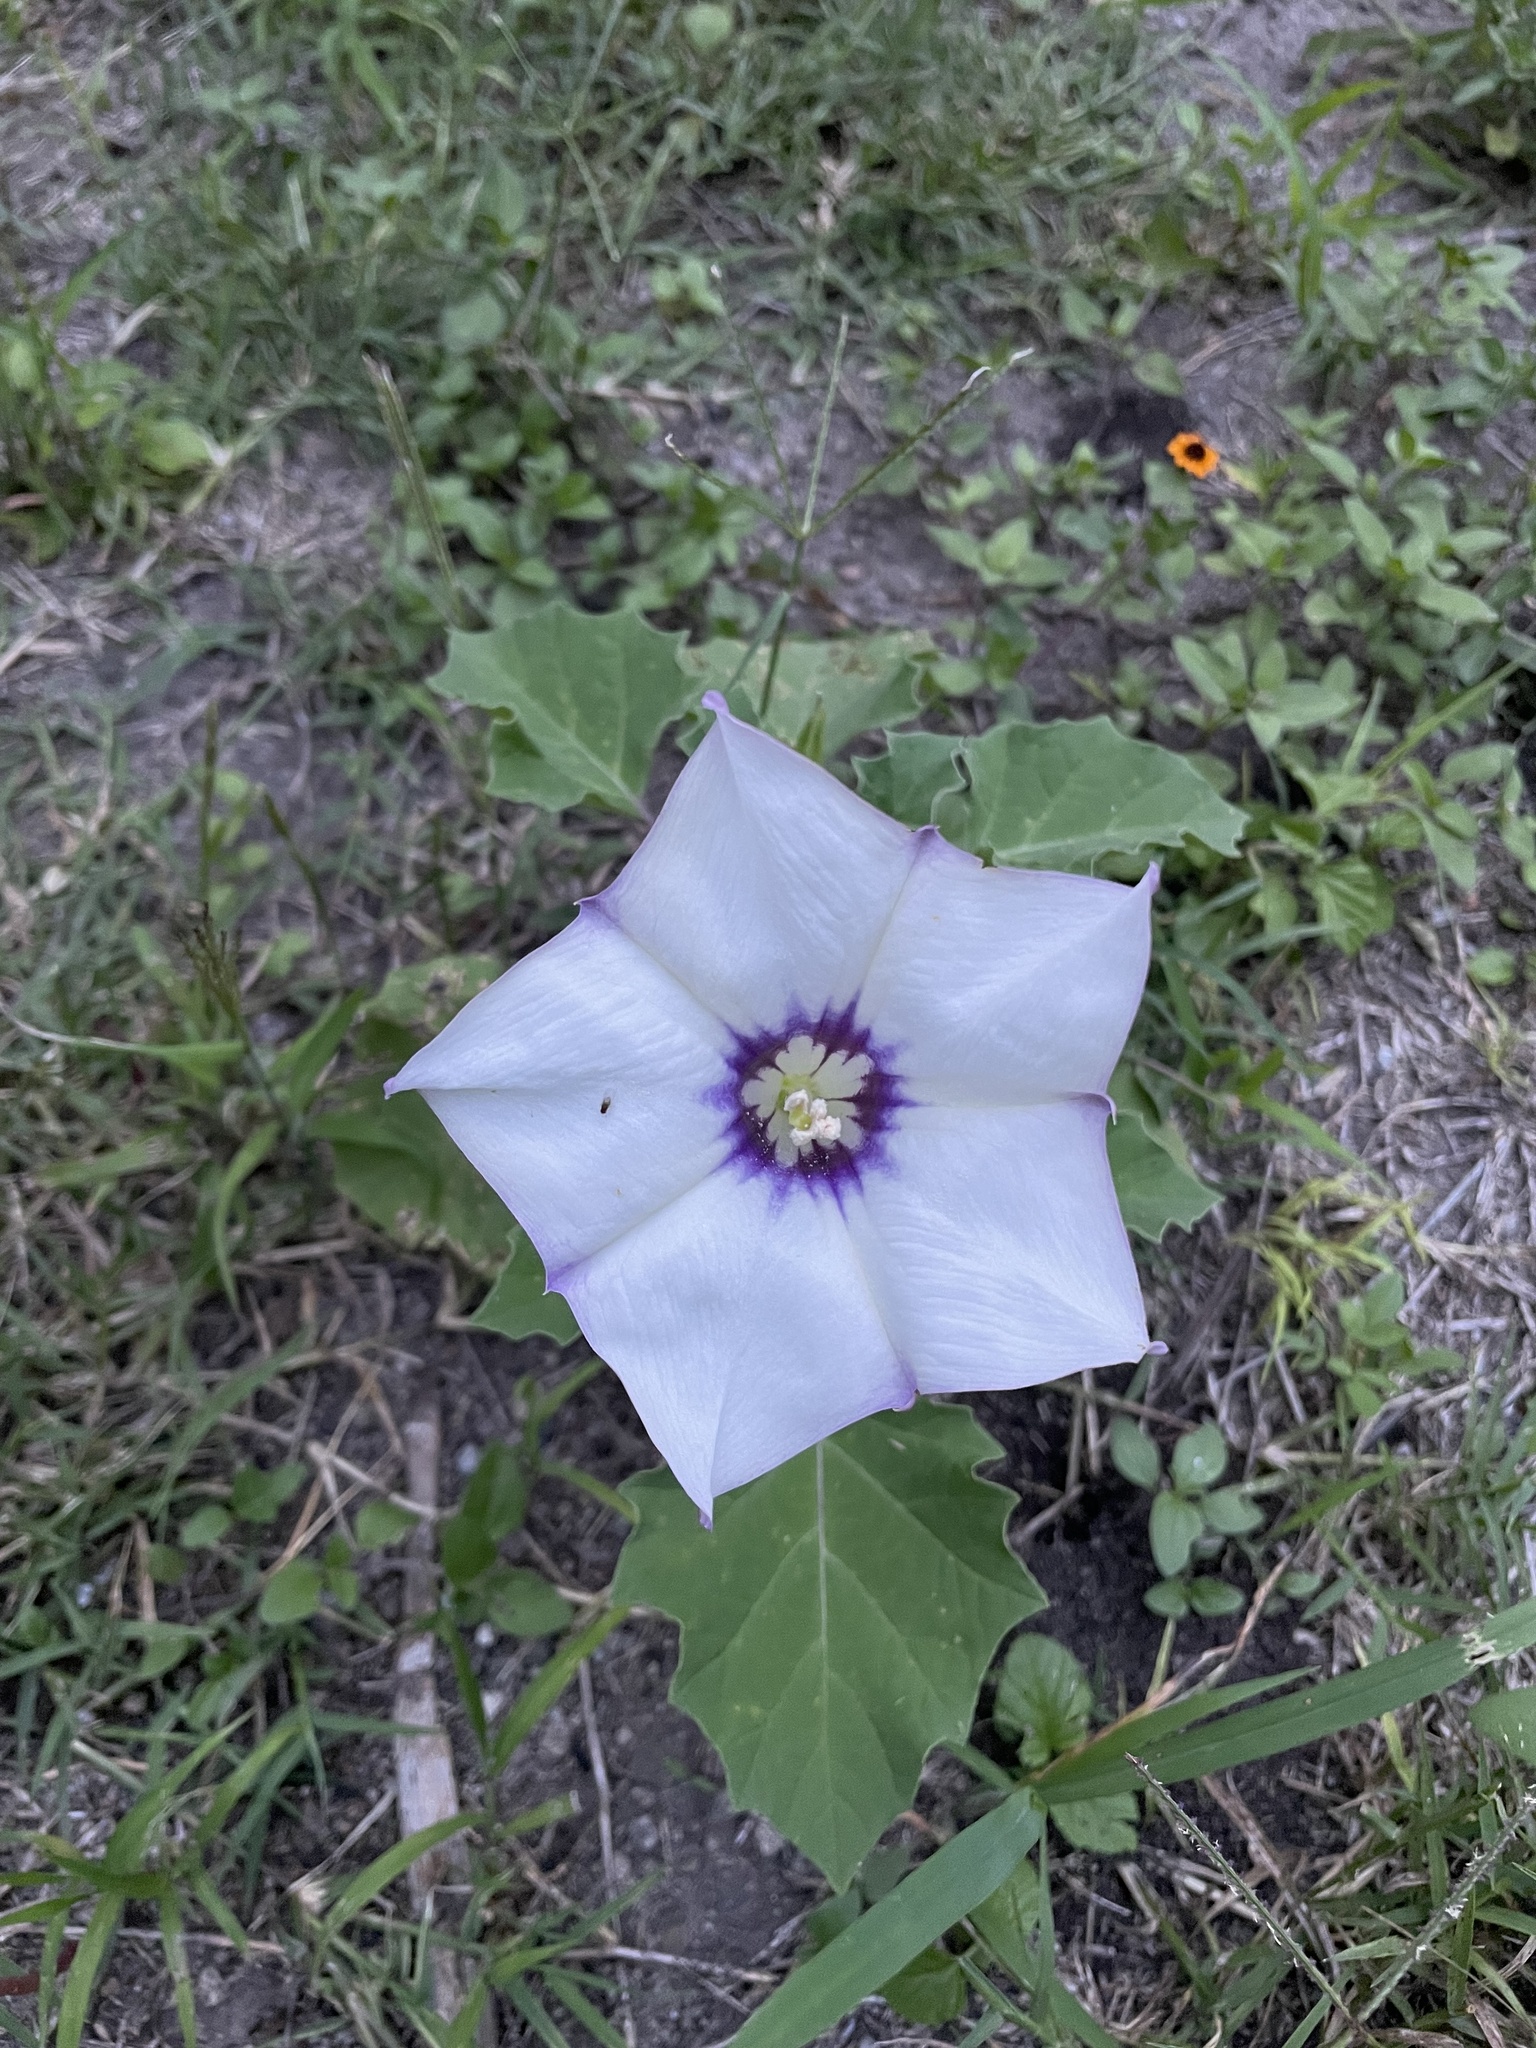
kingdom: Plantae
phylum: Tracheophyta
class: Magnoliopsida
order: Solanales
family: Solanaceae
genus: Datura
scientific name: Datura discolor
